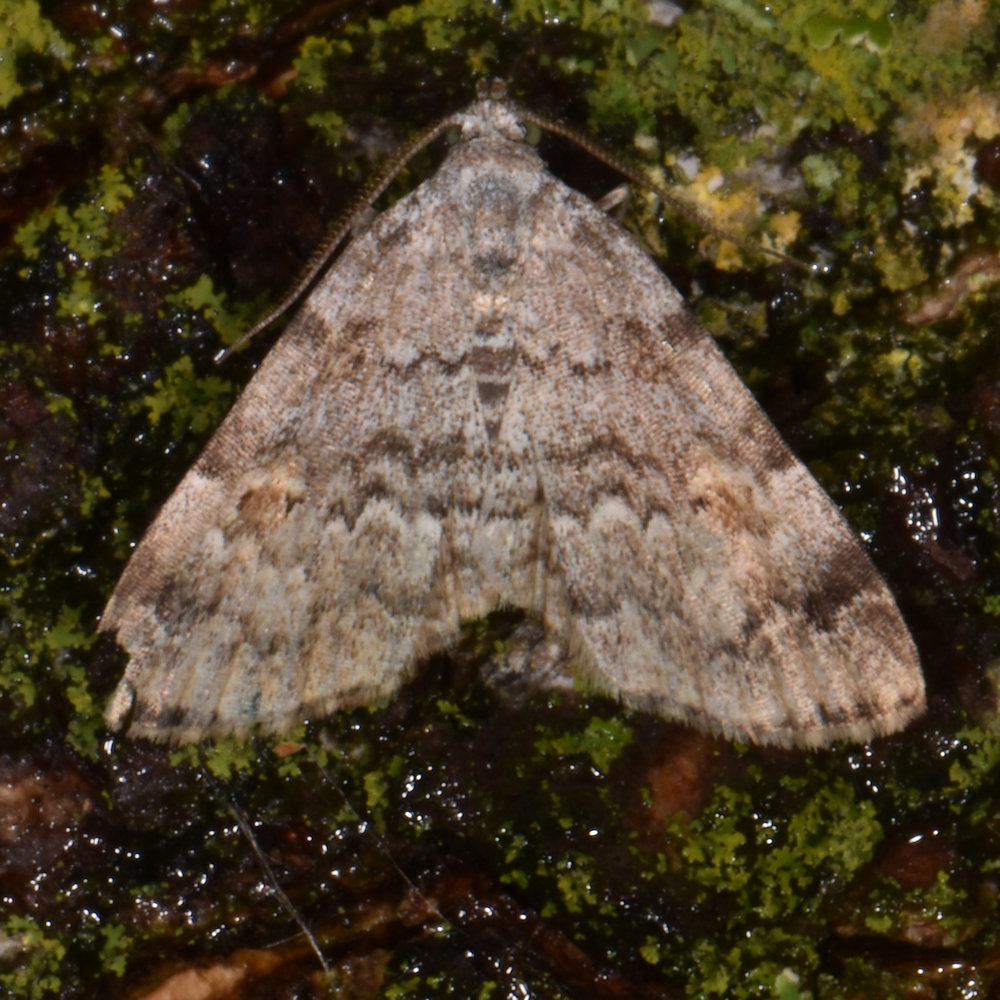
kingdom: Animalia
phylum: Arthropoda
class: Insecta
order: Lepidoptera
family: Erebidae
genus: Idia
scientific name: Idia aemula
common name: Common idia moth
